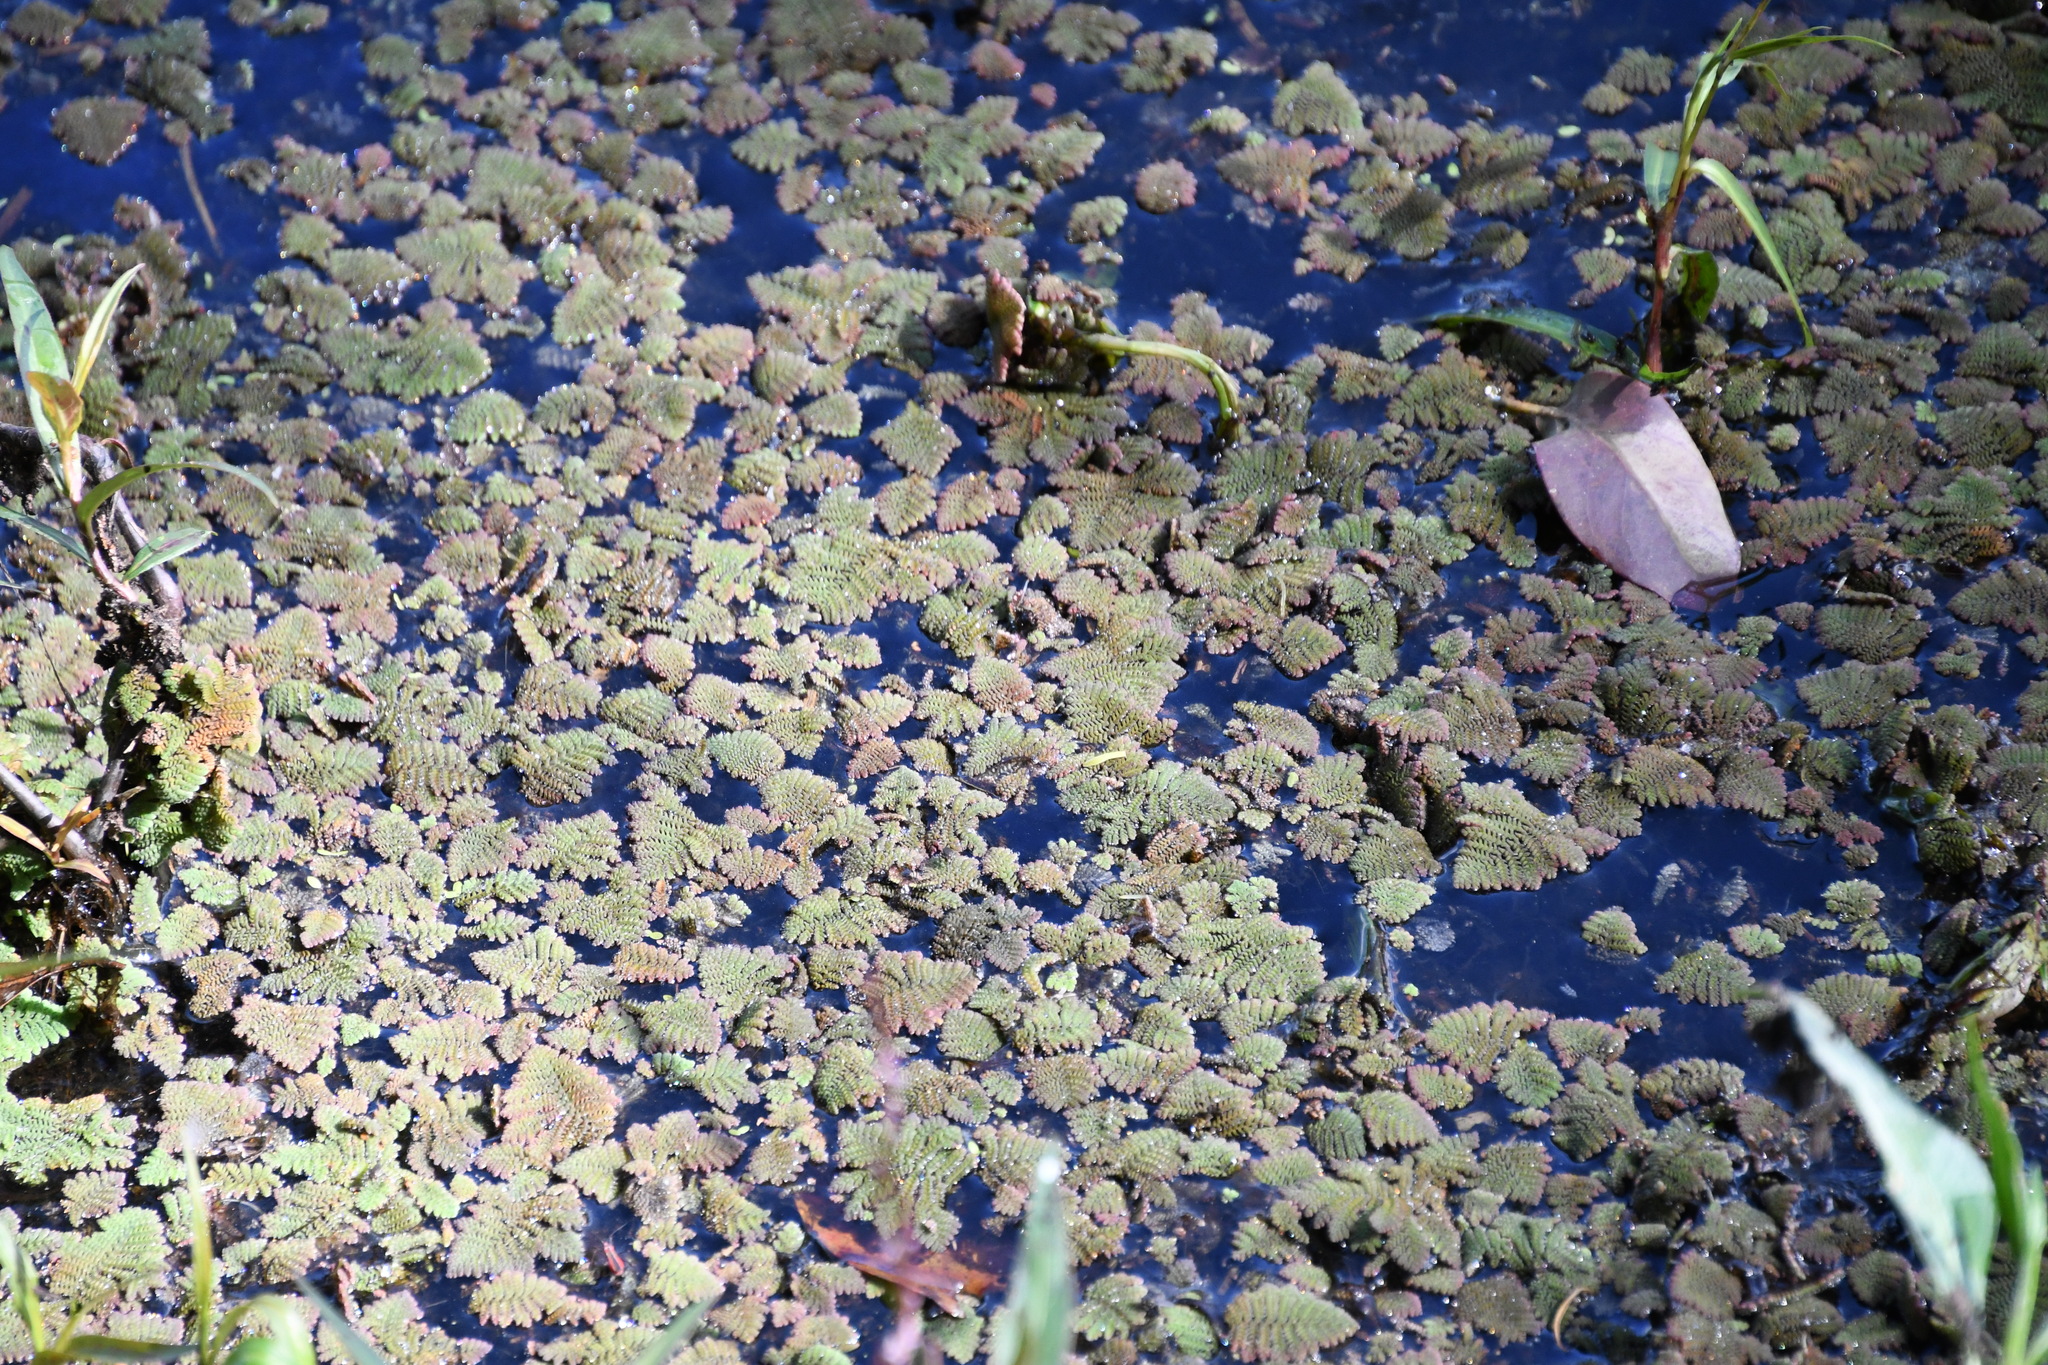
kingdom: Plantae
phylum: Tracheophyta
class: Polypodiopsida
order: Salviniales
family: Salviniaceae
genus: Azolla
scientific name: Azolla pinnata
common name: Ferny azolla
